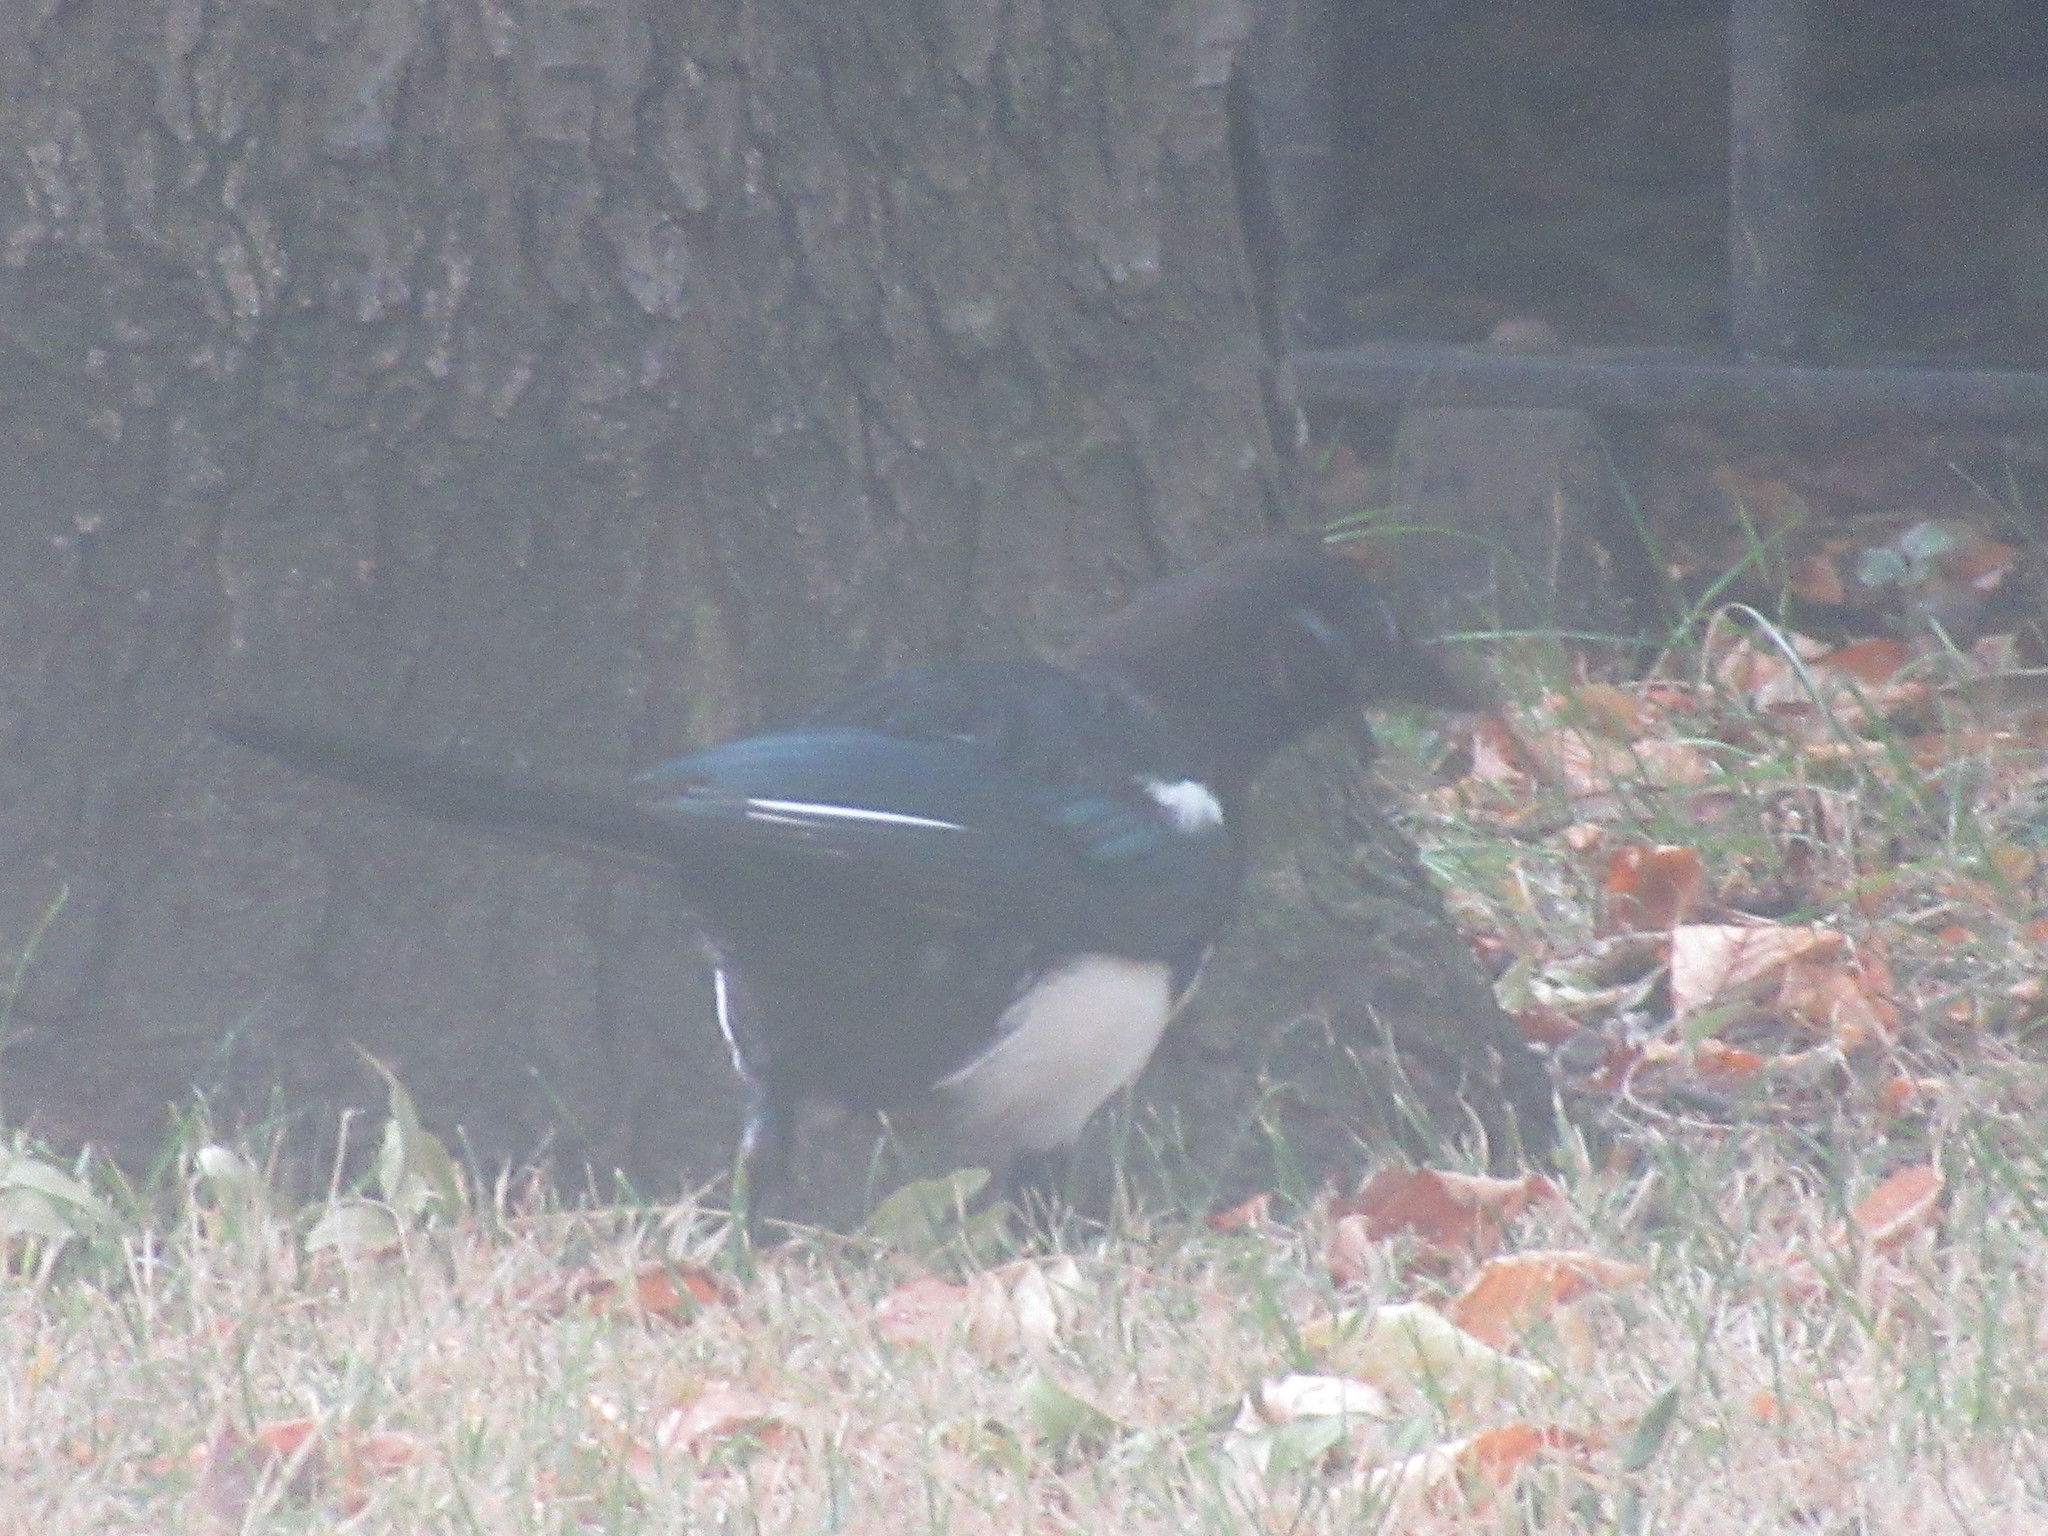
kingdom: Animalia
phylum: Chordata
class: Aves
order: Passeriformes
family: Corvidae
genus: Pica
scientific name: Pica pica
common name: Eurasian magpie
